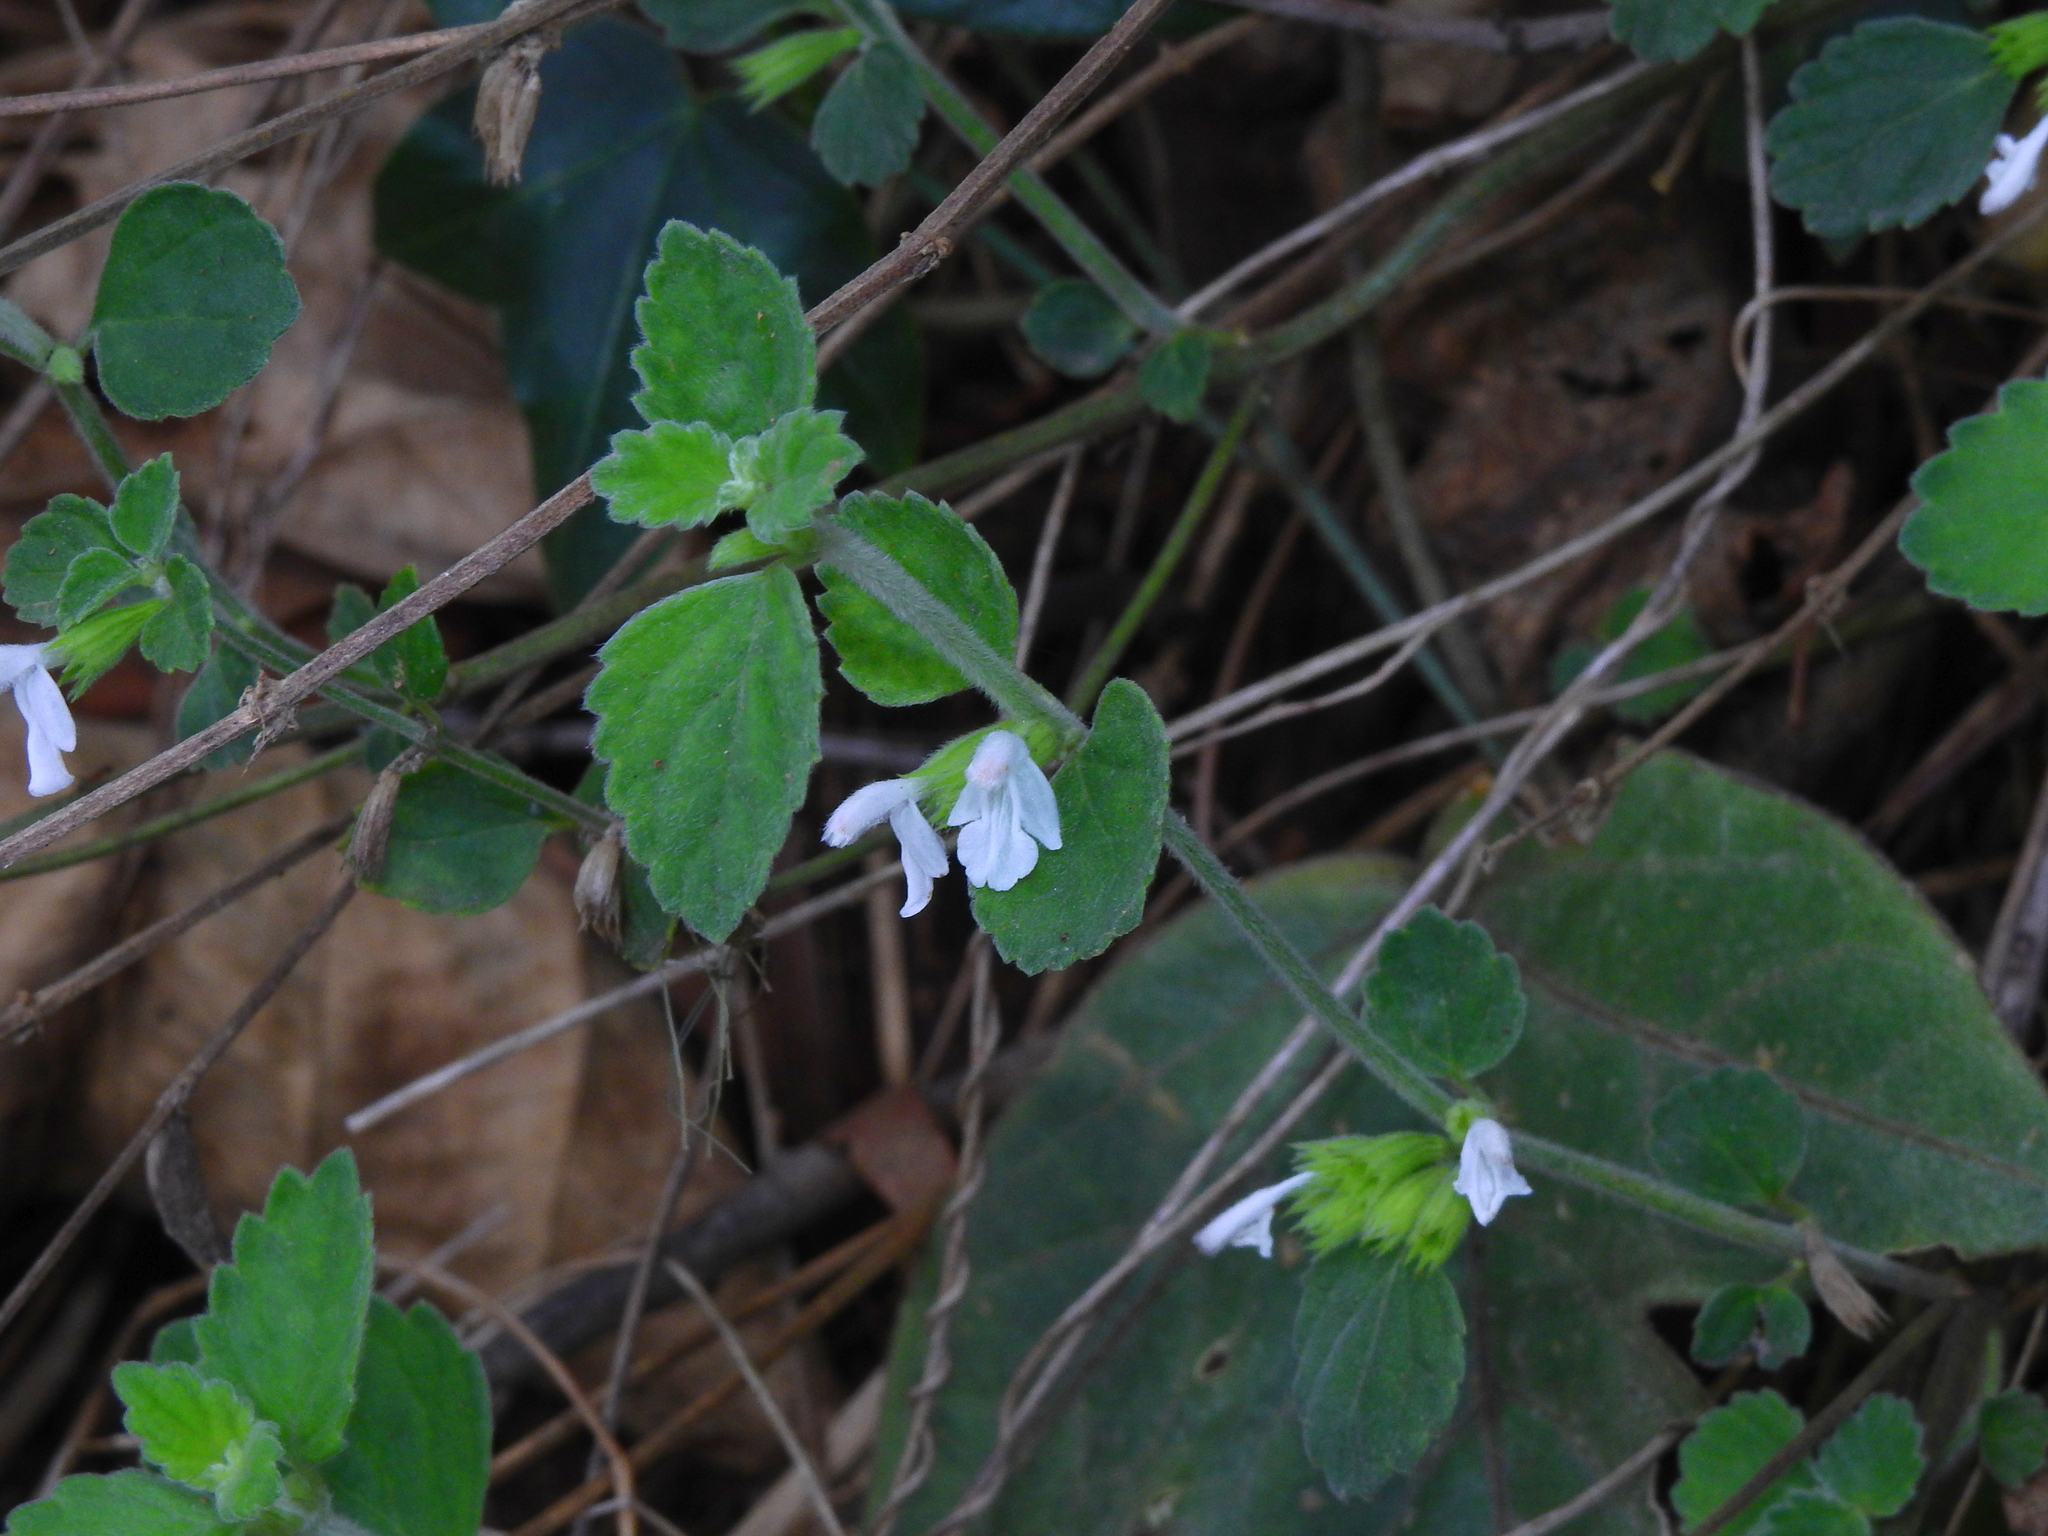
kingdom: Plantae
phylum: Tracheophyta
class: Magnoliopsida
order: Lamiales
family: Lamiaceae
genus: Leucas
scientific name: Leucas chinensis
